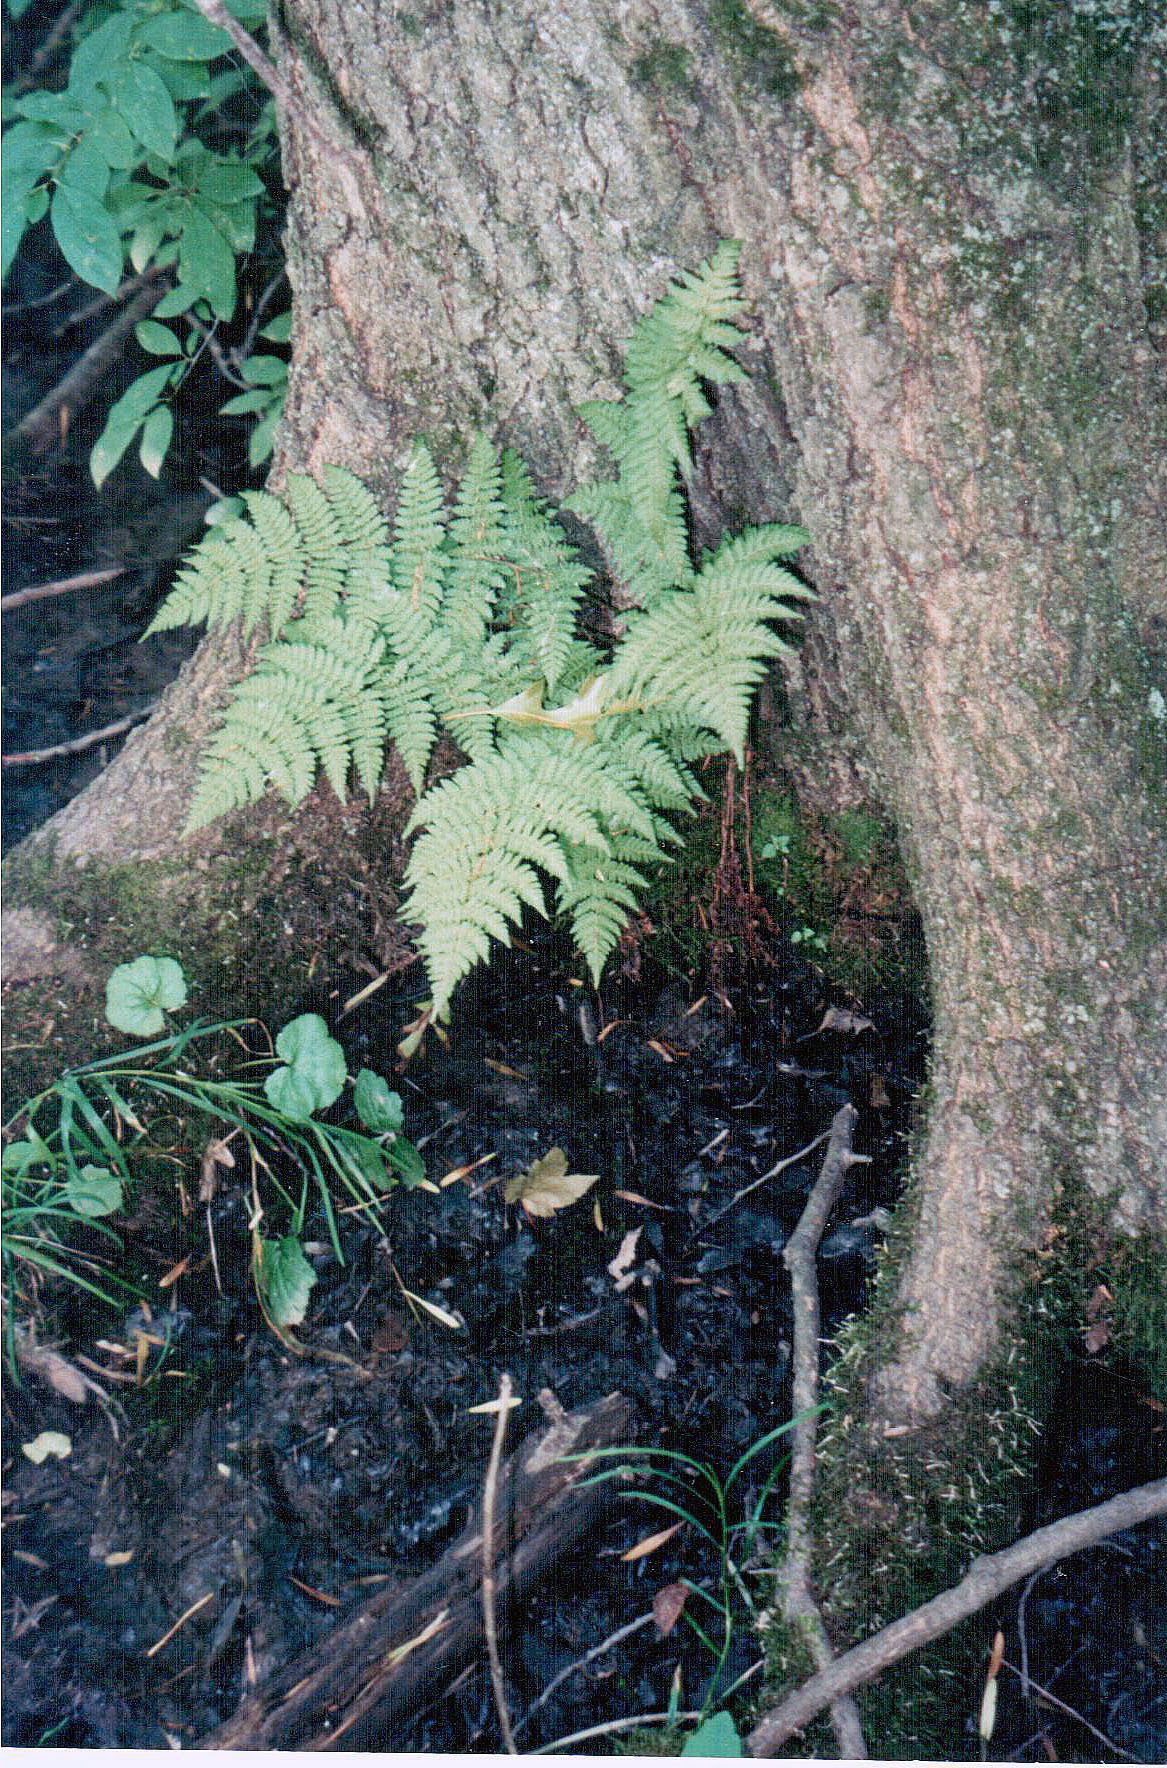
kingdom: Plantae
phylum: Tracheophyta
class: Polypodiopsida
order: Polypodiales
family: Dryopteridaceae
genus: Dryopteris
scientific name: Dryopteris intermedia
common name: Evergreen wood fern
